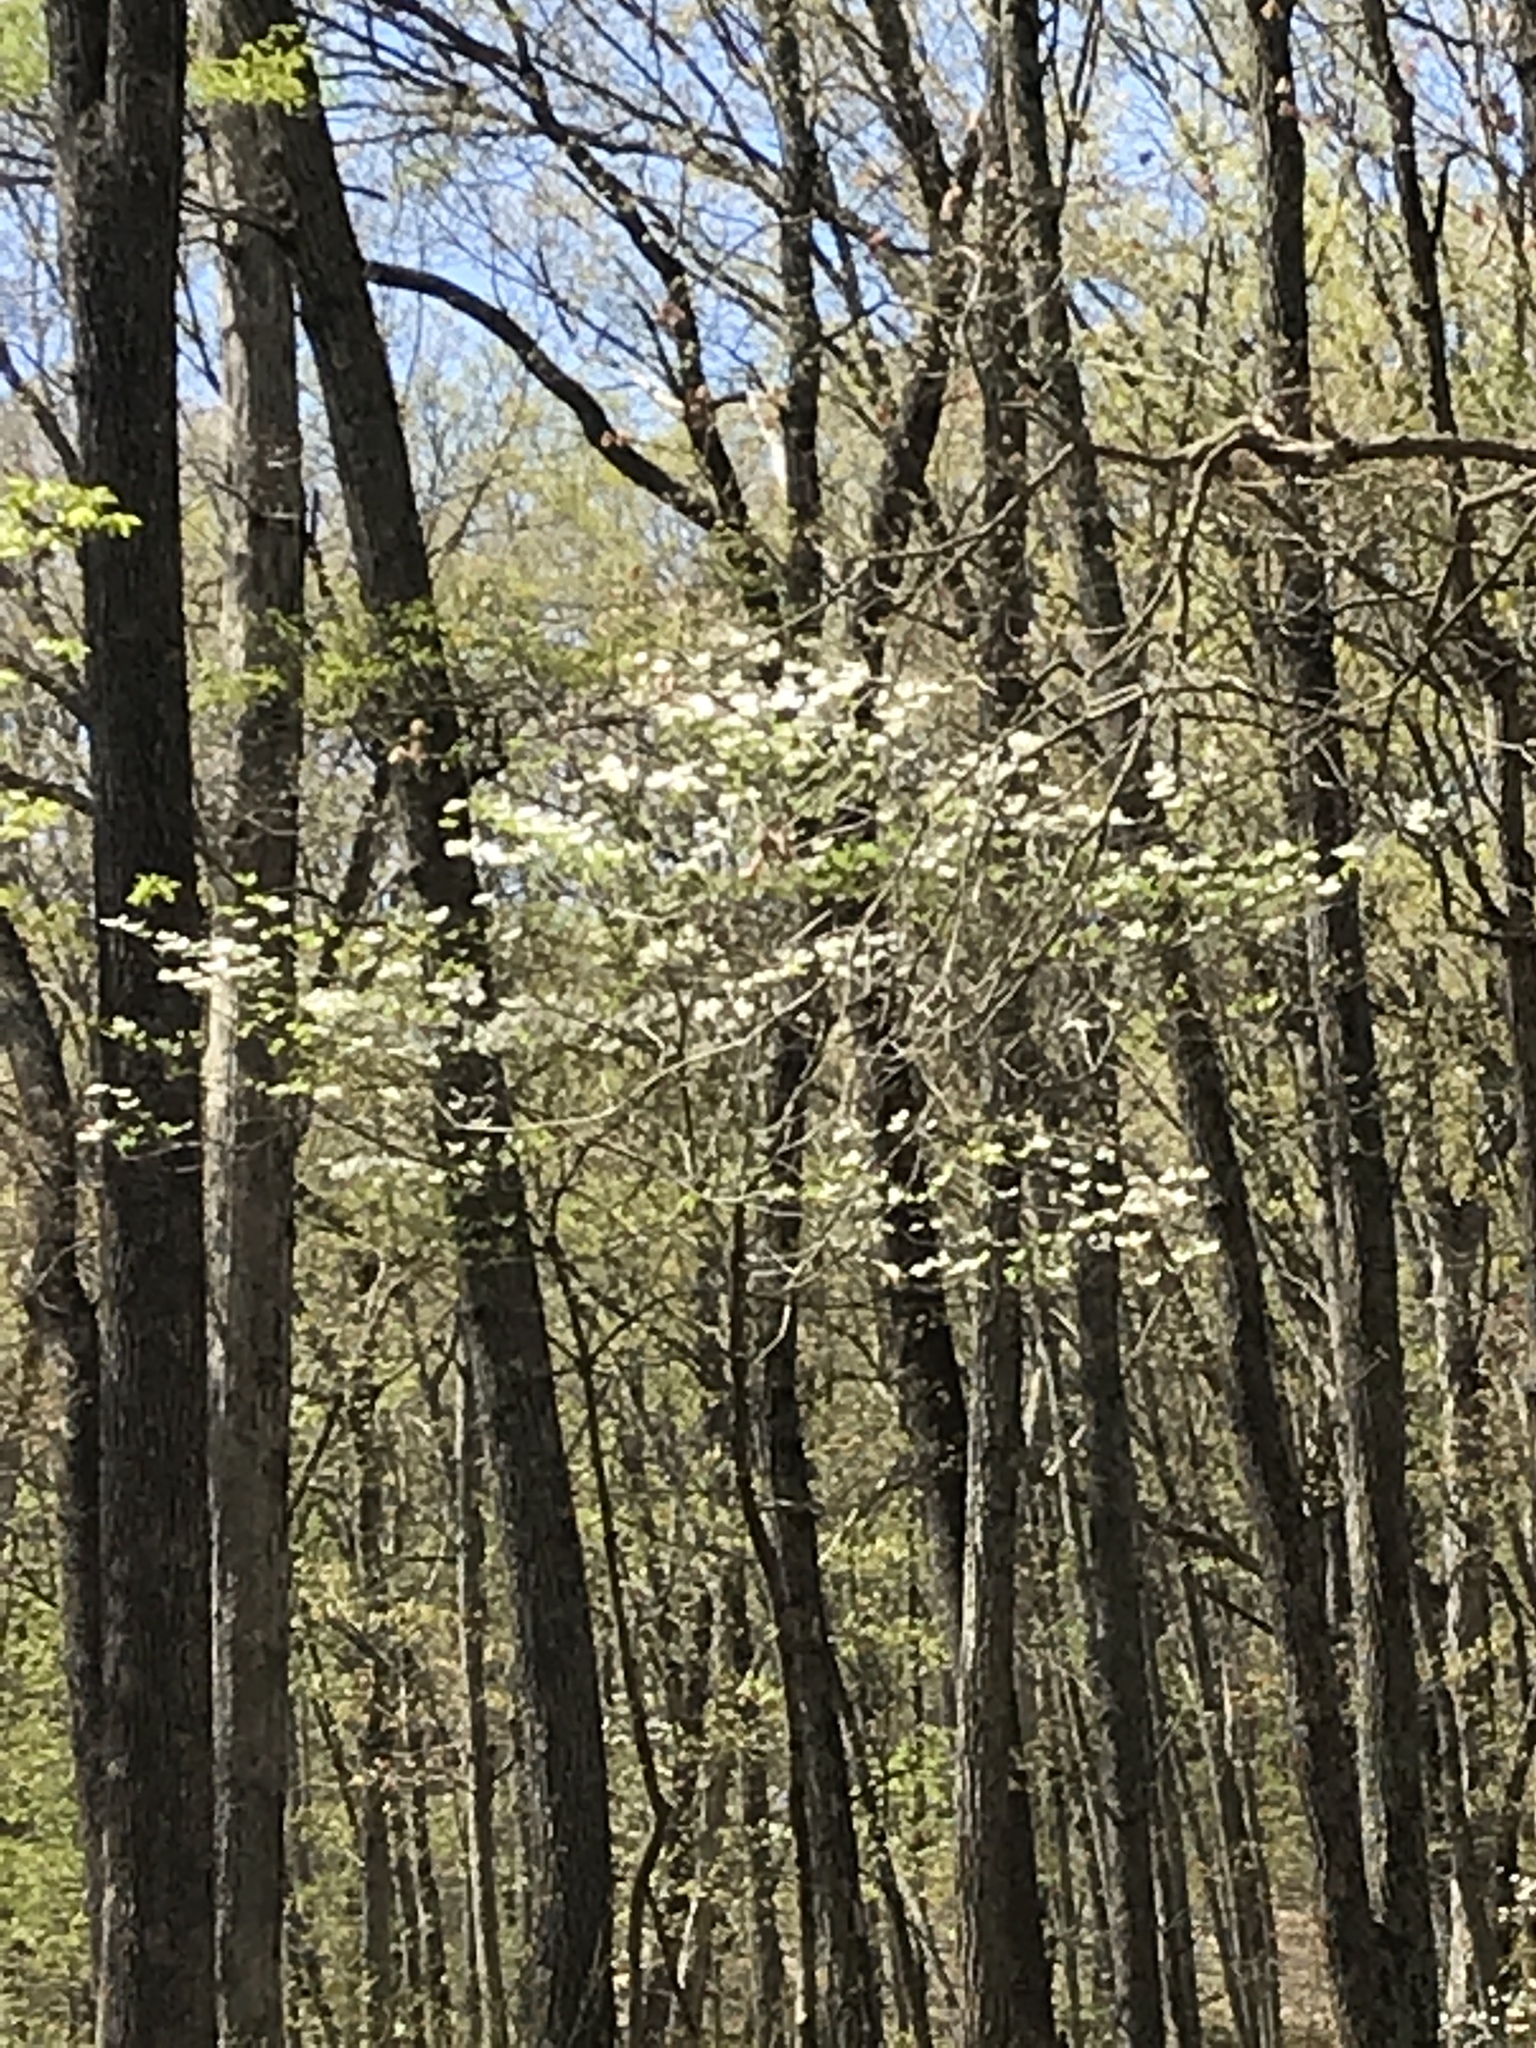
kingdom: Plantae
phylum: Tracheophyta
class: Magnoliopsida
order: Cornales
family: Cornaceae
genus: Cornus
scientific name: Cornus florida
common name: Flowering dogwood
